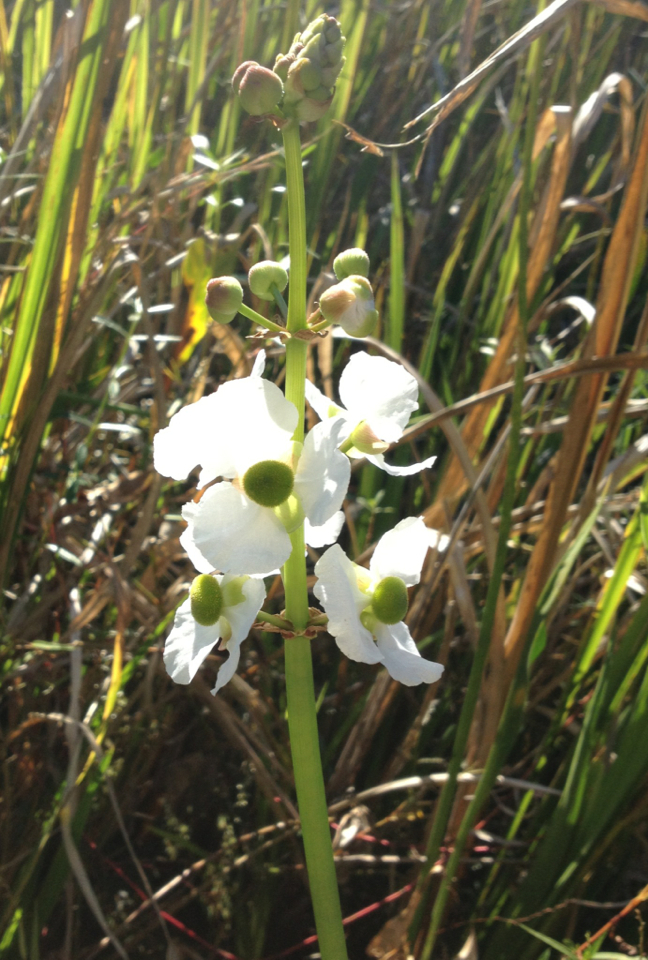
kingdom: Plantae
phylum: Tracheophyta
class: Liliopsida
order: Alismatales
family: Alismataceae
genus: Sagittaria
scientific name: Sagittaria lancifolia
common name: Lance-leaf arrowhead
